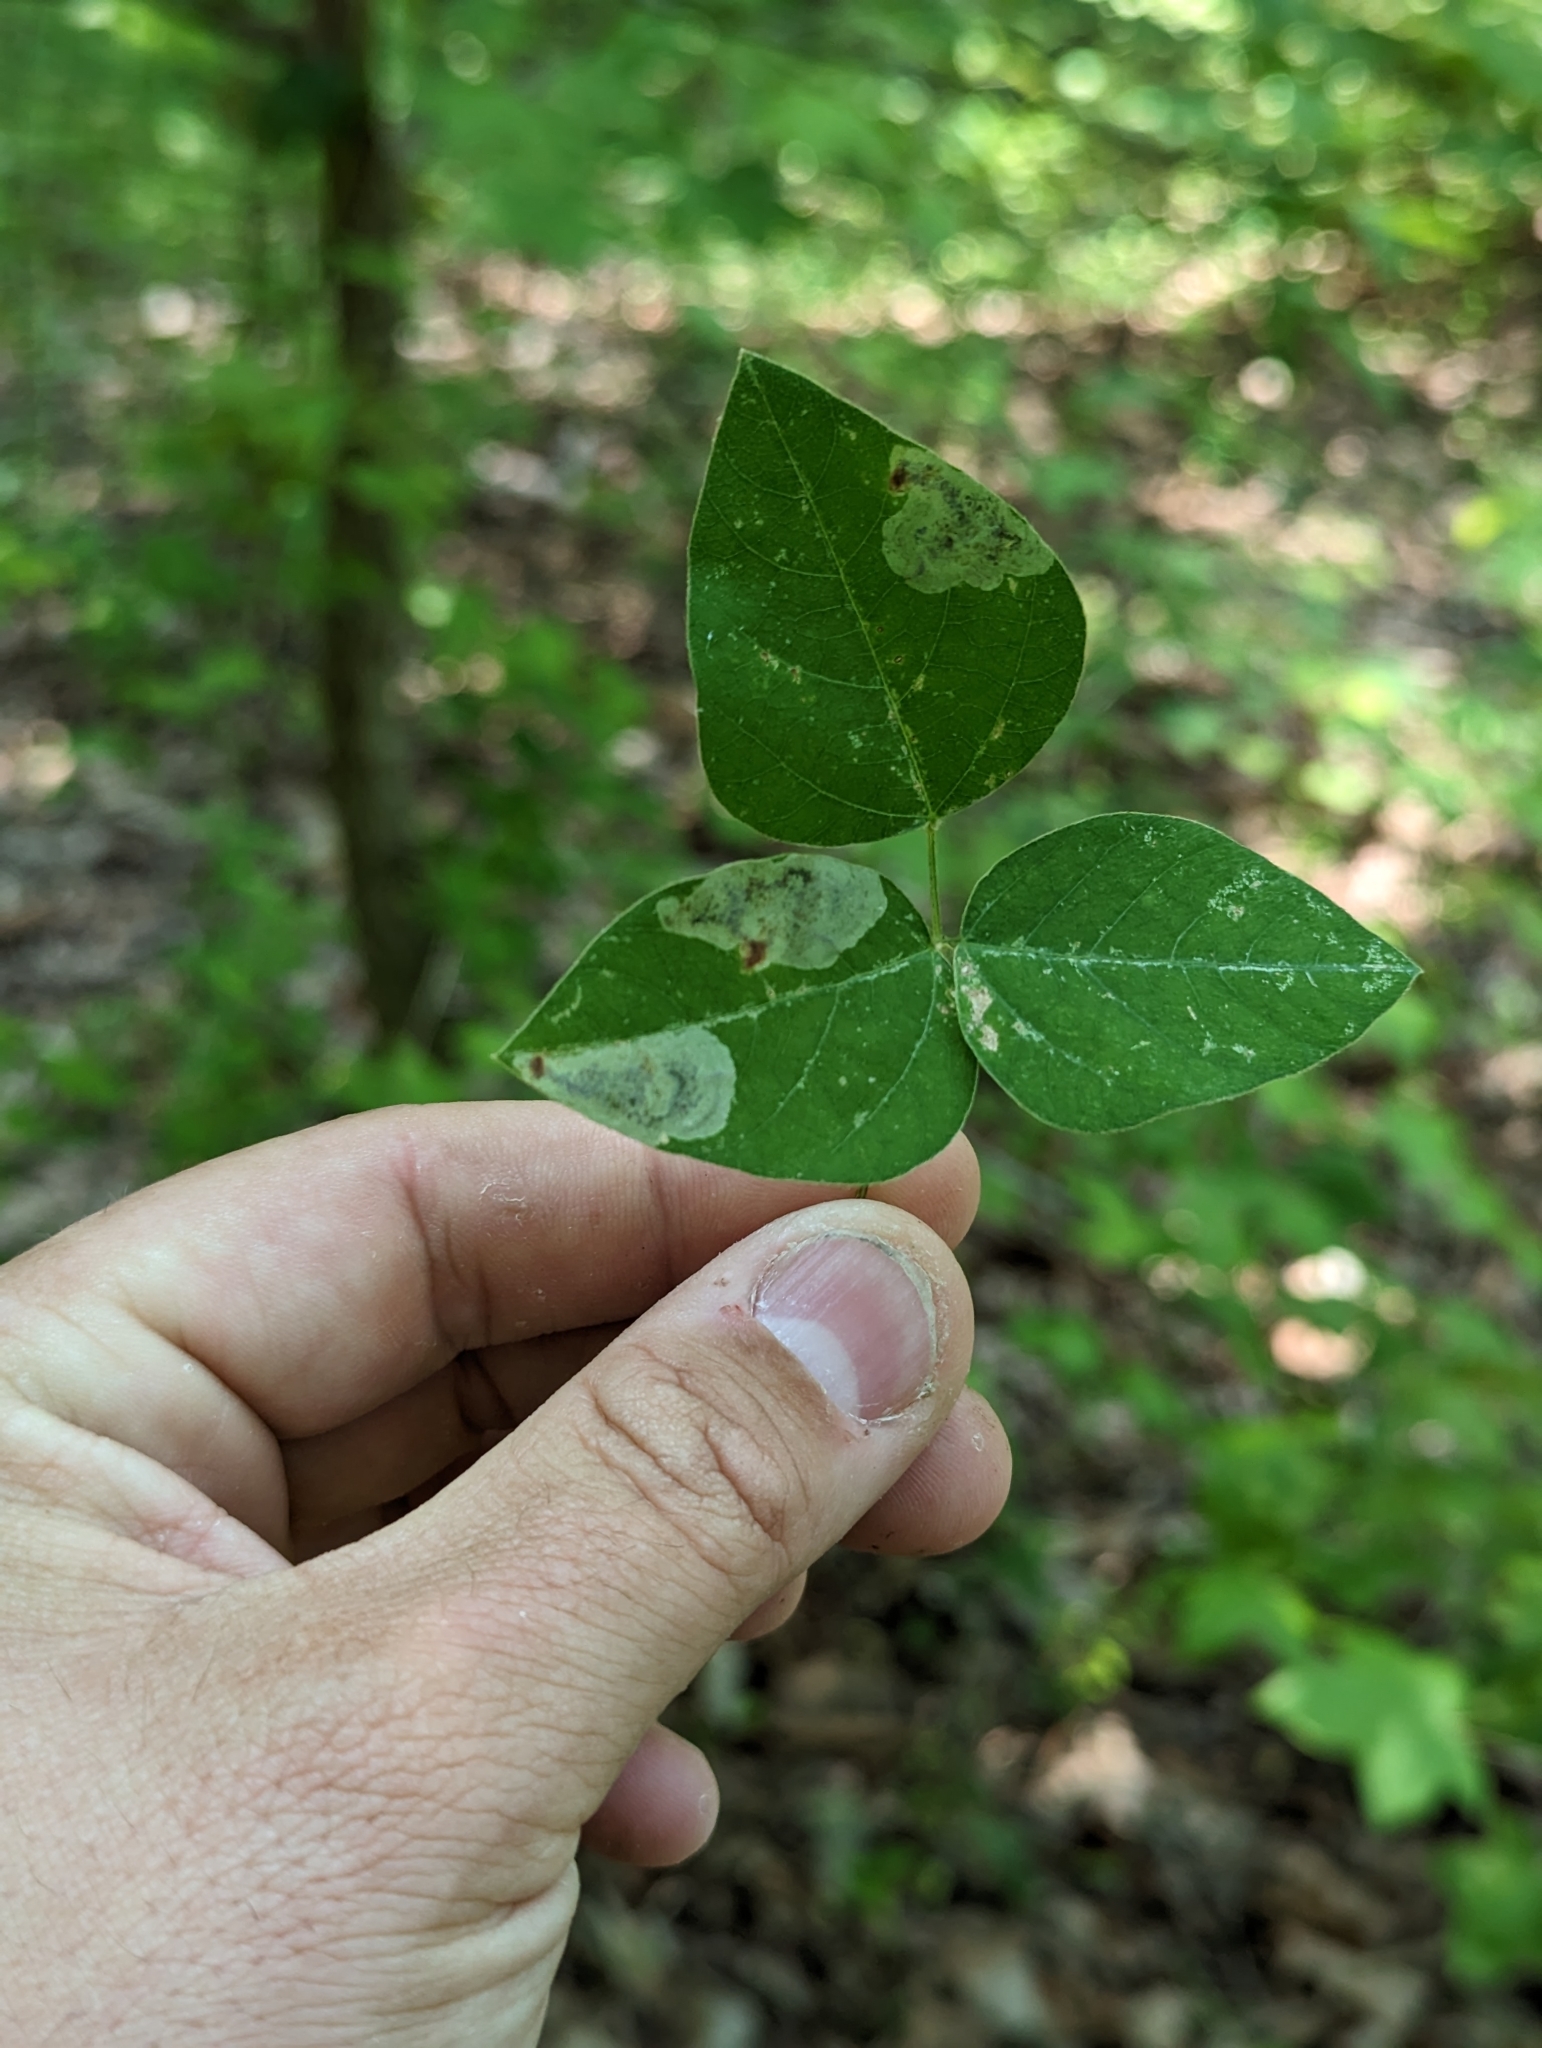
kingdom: Animalia
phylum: Arthropoda
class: Insecta
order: Lepidoptera
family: Gracillariidae
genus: Leucanthiza
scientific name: Leucanthiza amphicarpeaefoliella
